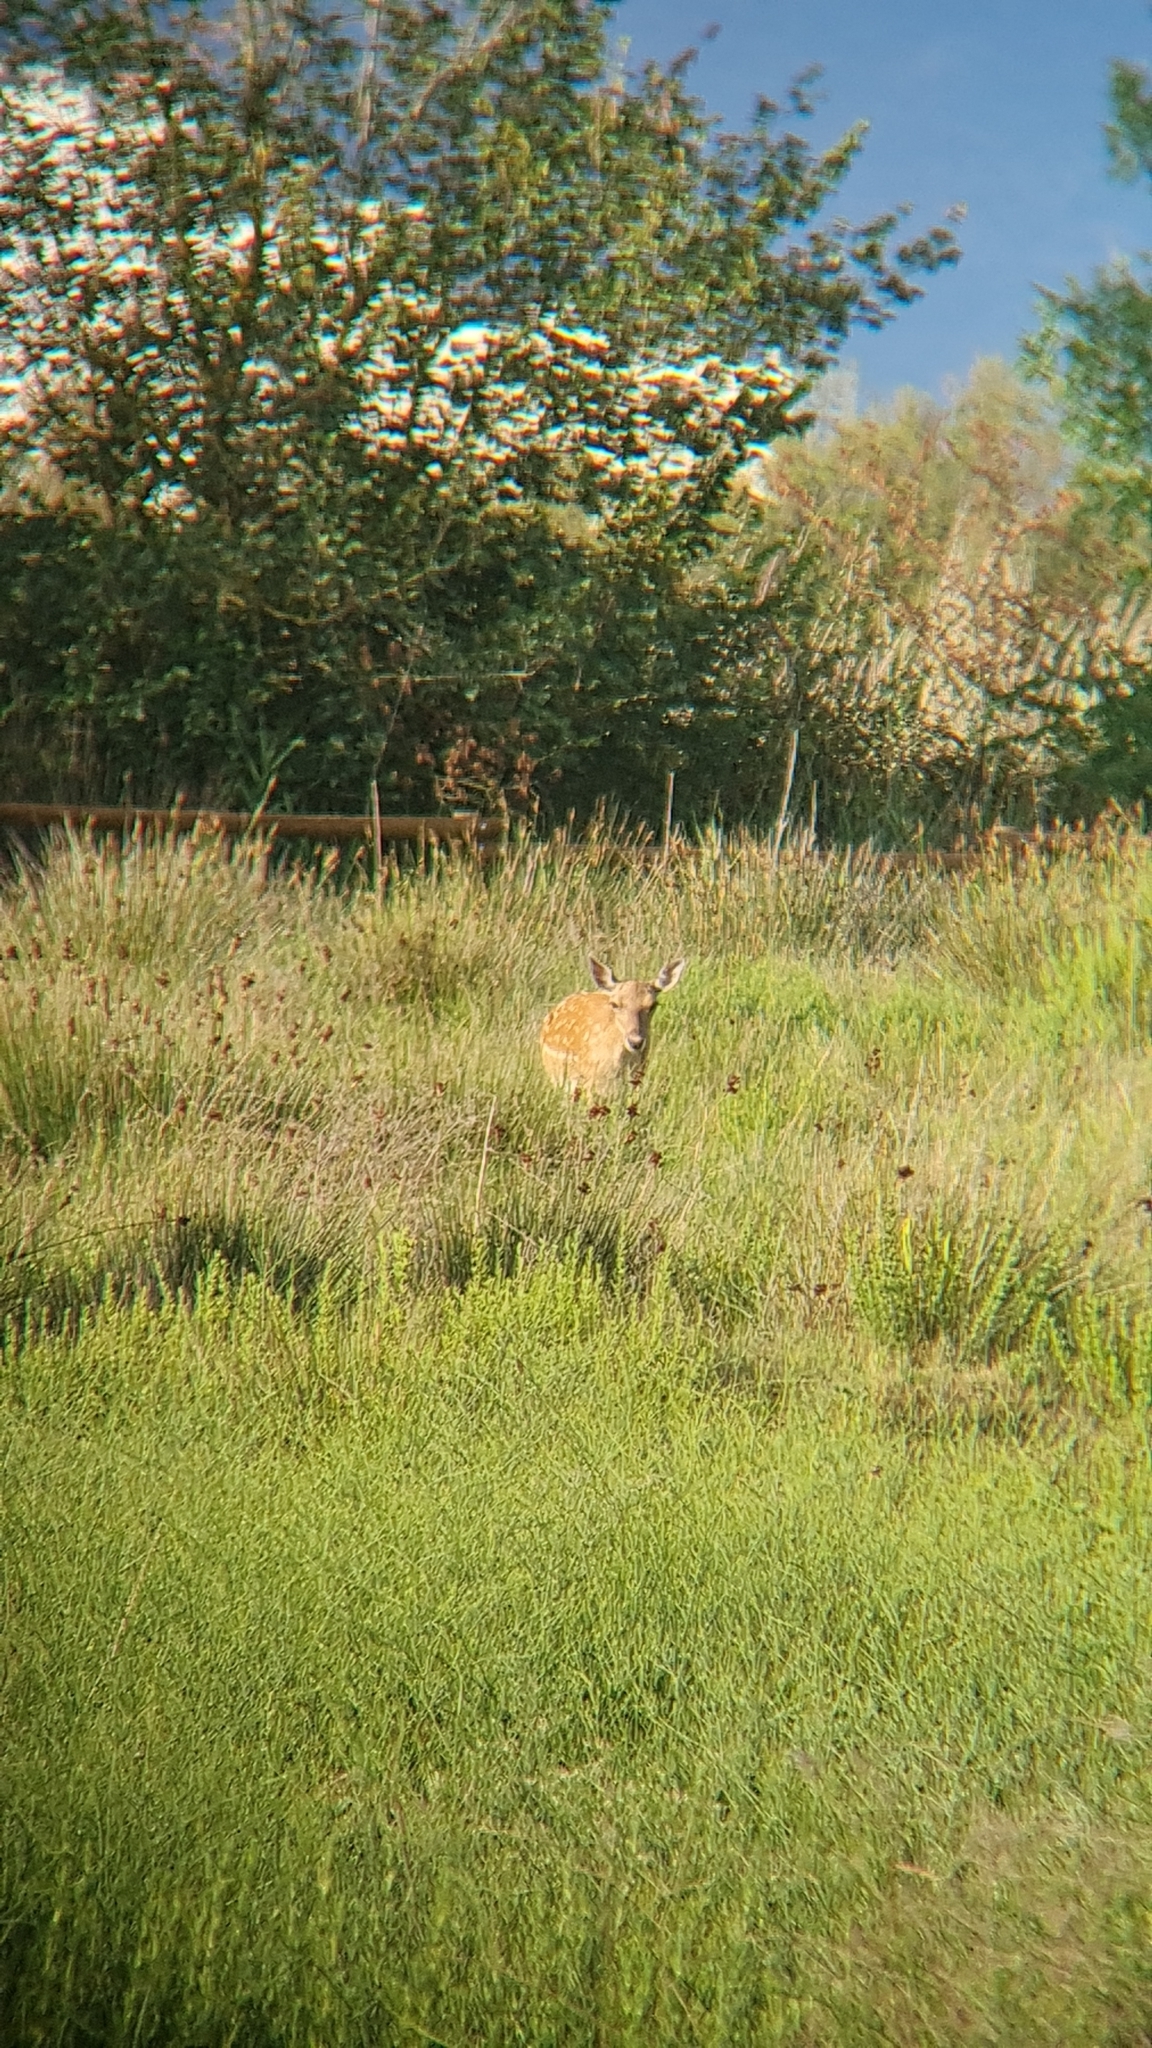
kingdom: Animalia
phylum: Chordata
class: Mammalia
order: Artiodactyla
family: Cervidae
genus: Dama
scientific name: Dama dama
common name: Fallow deer
